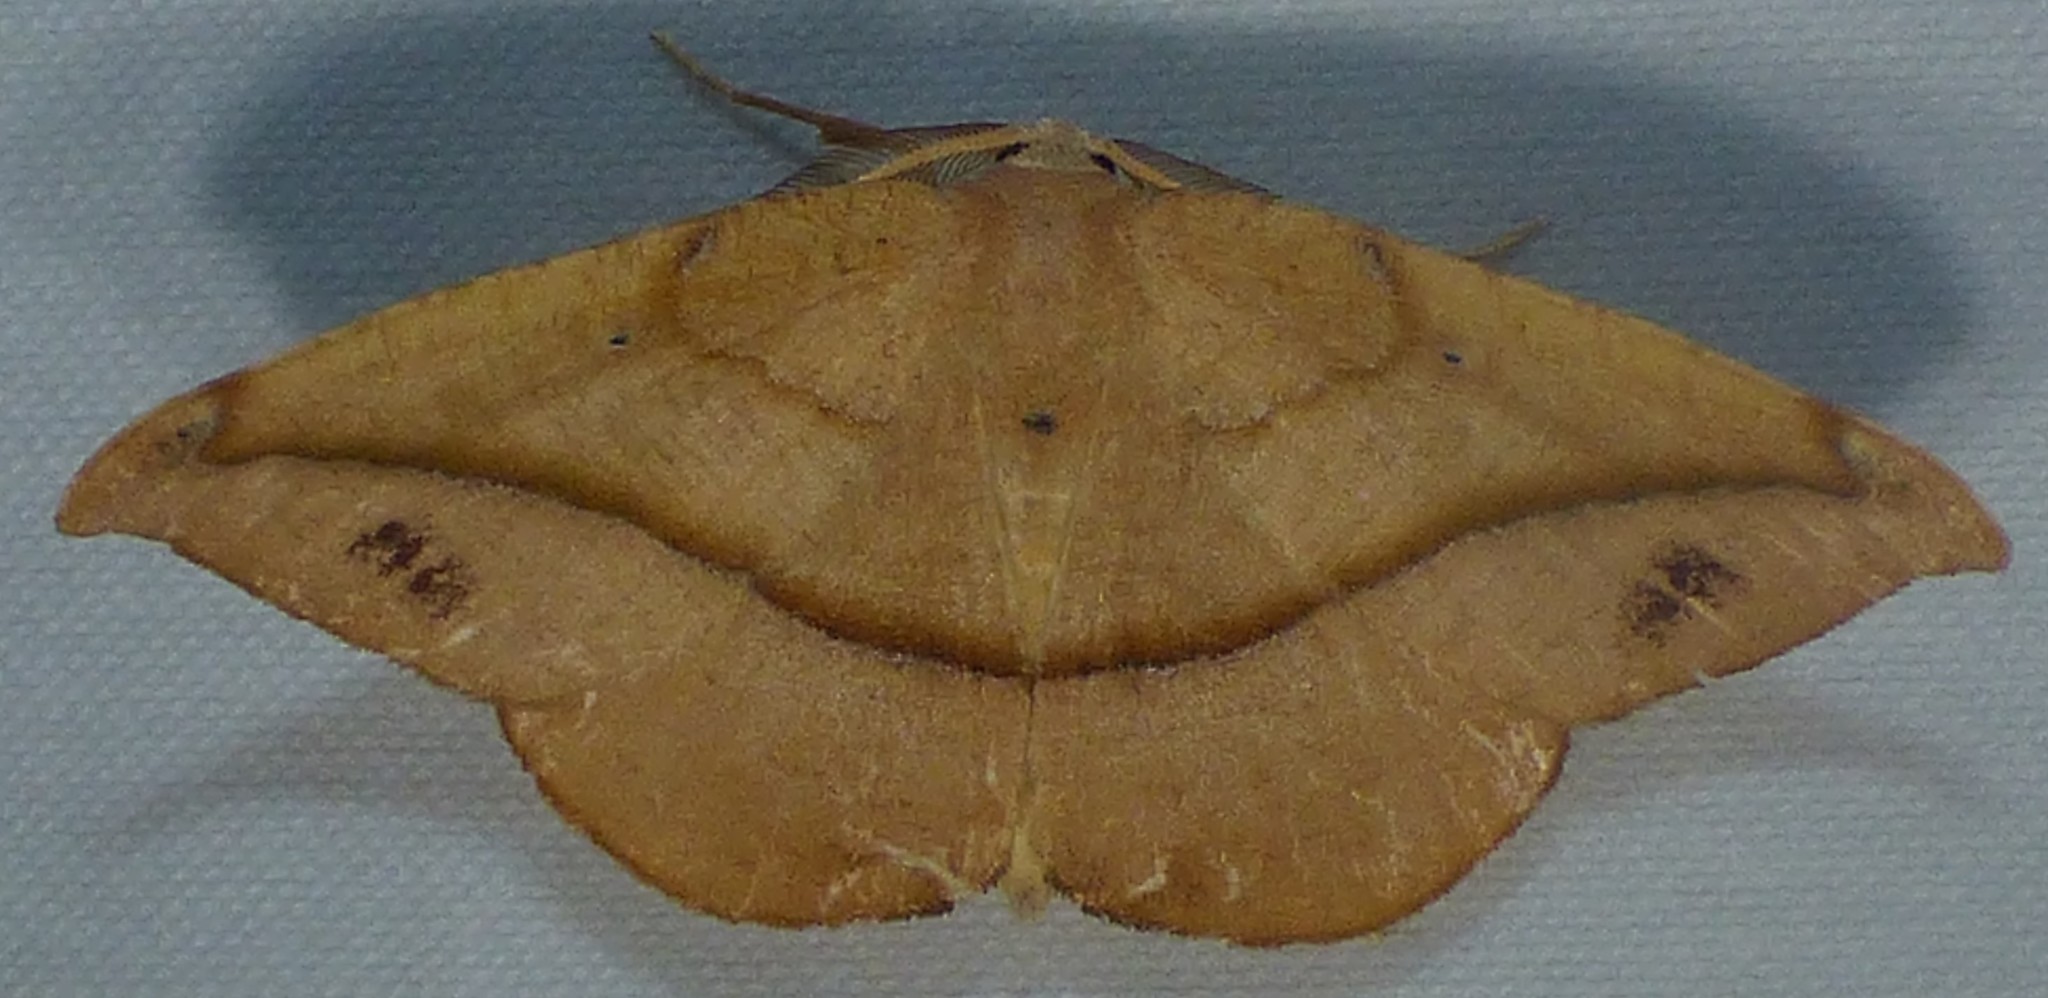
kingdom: Animalia
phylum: Arthropoda
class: Insecta
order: Lepidoptera
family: Geometridae
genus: Patalene
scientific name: Patalene olyzonaria
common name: Juniper geometer moth
